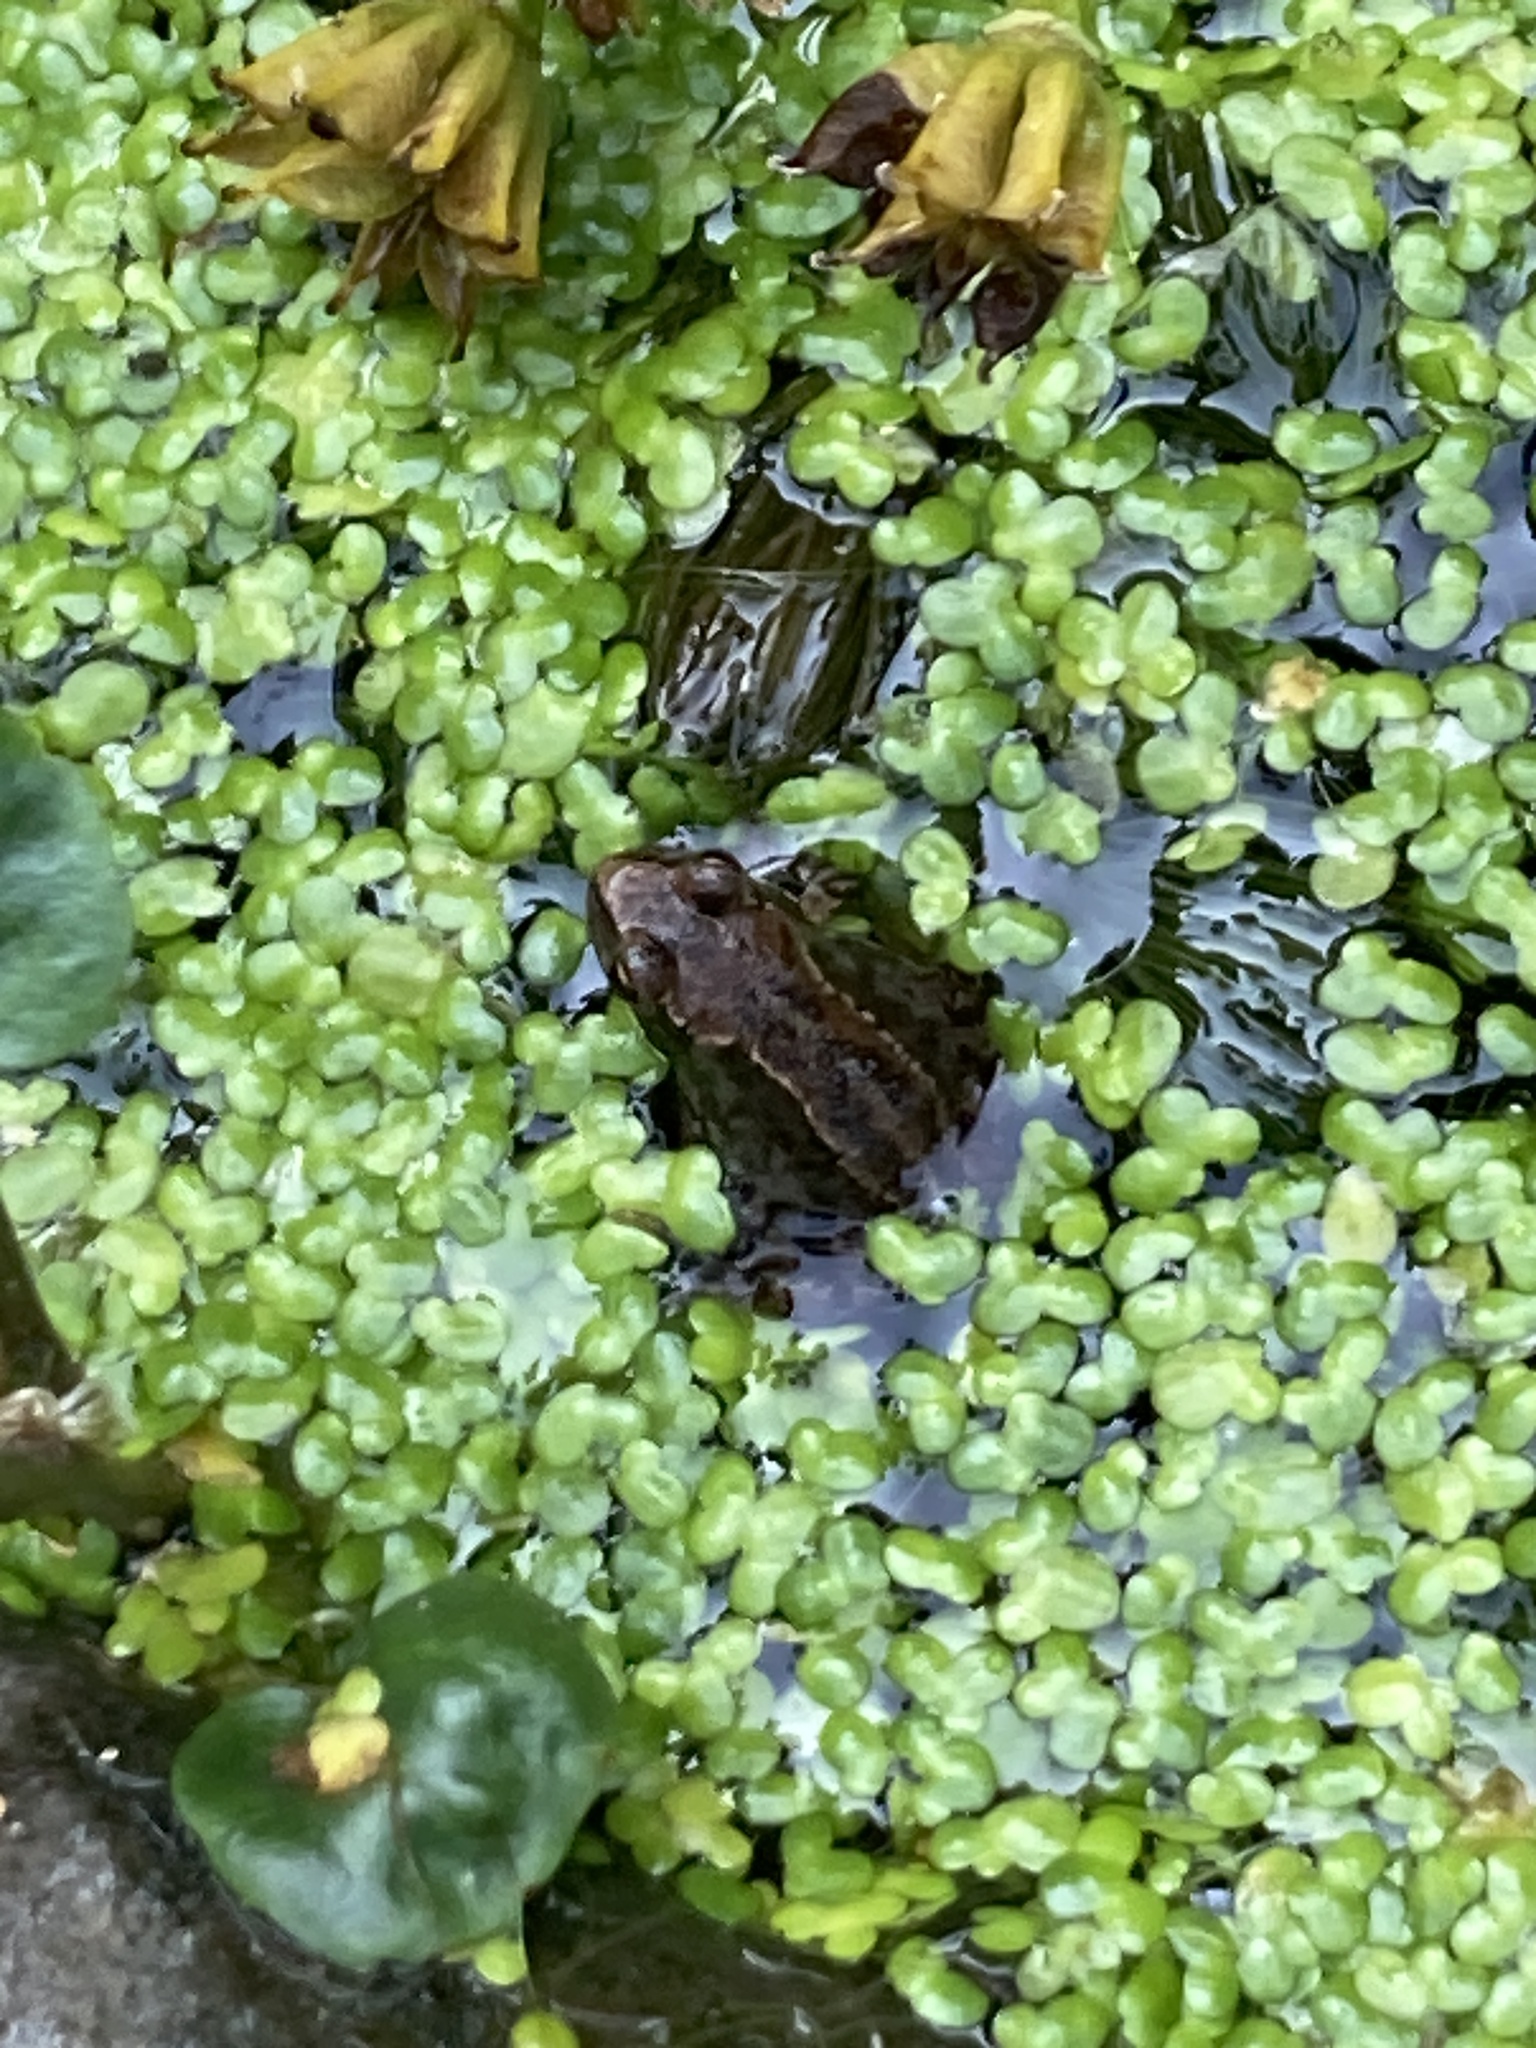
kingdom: Animalia
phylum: Chordata
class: Amphibia
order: Anura
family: Ranidae
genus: Rana
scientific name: Rana temporaria
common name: Common frog
